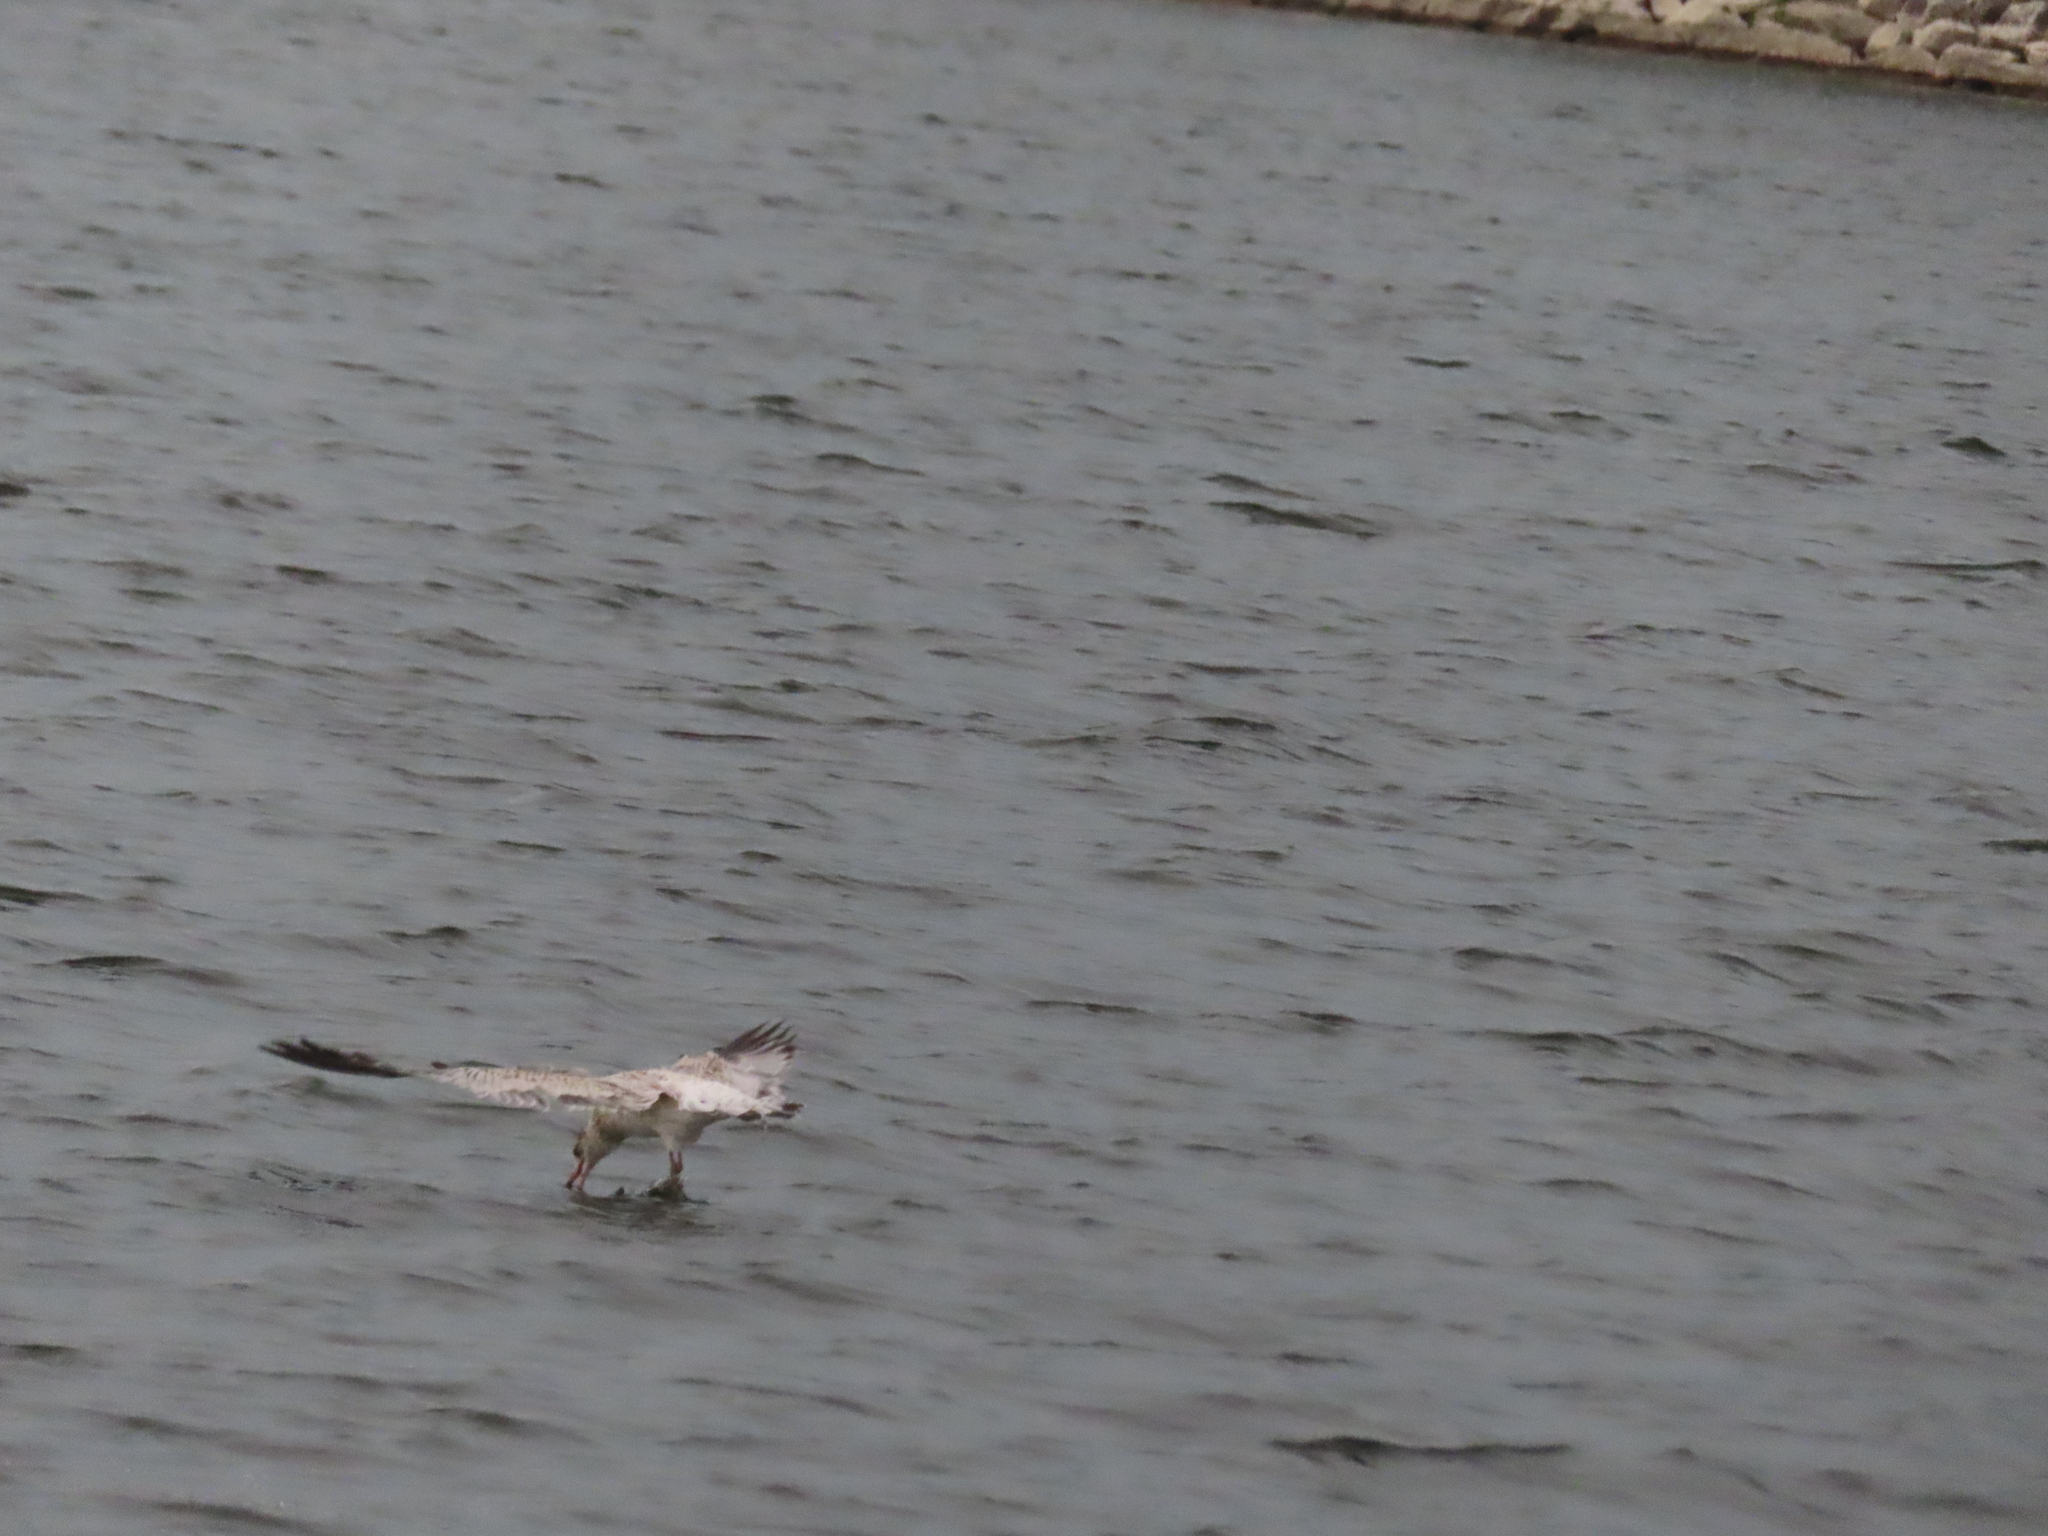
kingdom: Animalia
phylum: Chordata
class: Aves
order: Charadriiformes
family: Laridae
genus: Larus
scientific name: Larus delawarensis
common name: Ring-billed gull
